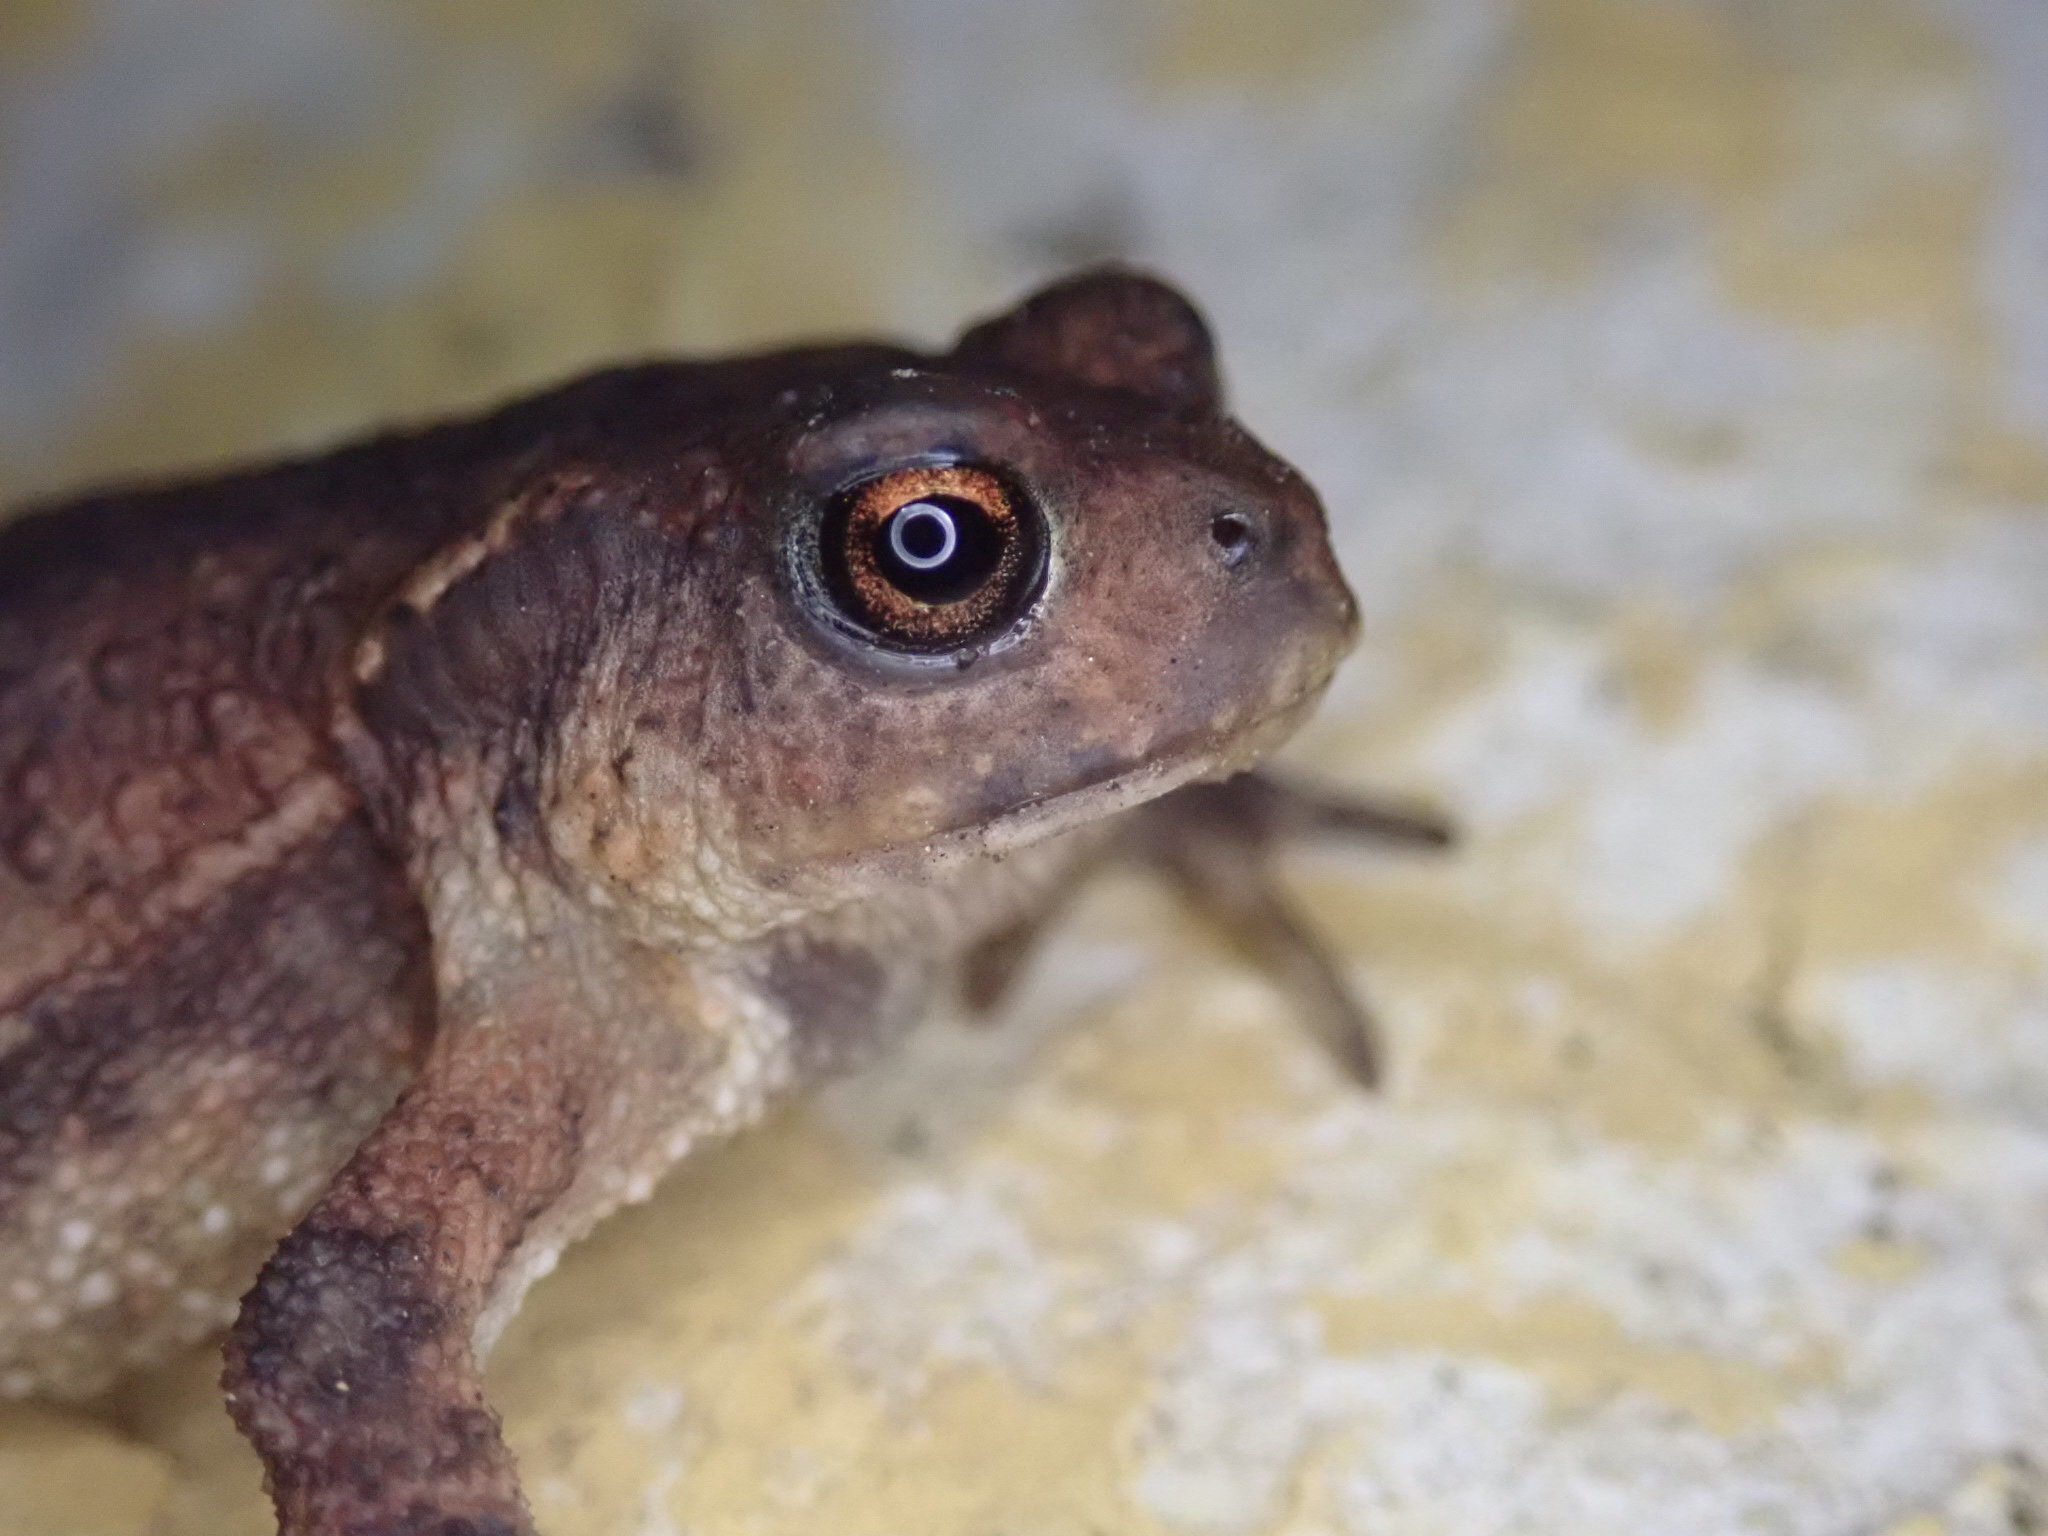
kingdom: Animalia
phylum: Chordata
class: Amphibia
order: Anura
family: Bufonidae
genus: Bufo
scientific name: Bufo spinosus
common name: Western common toad
